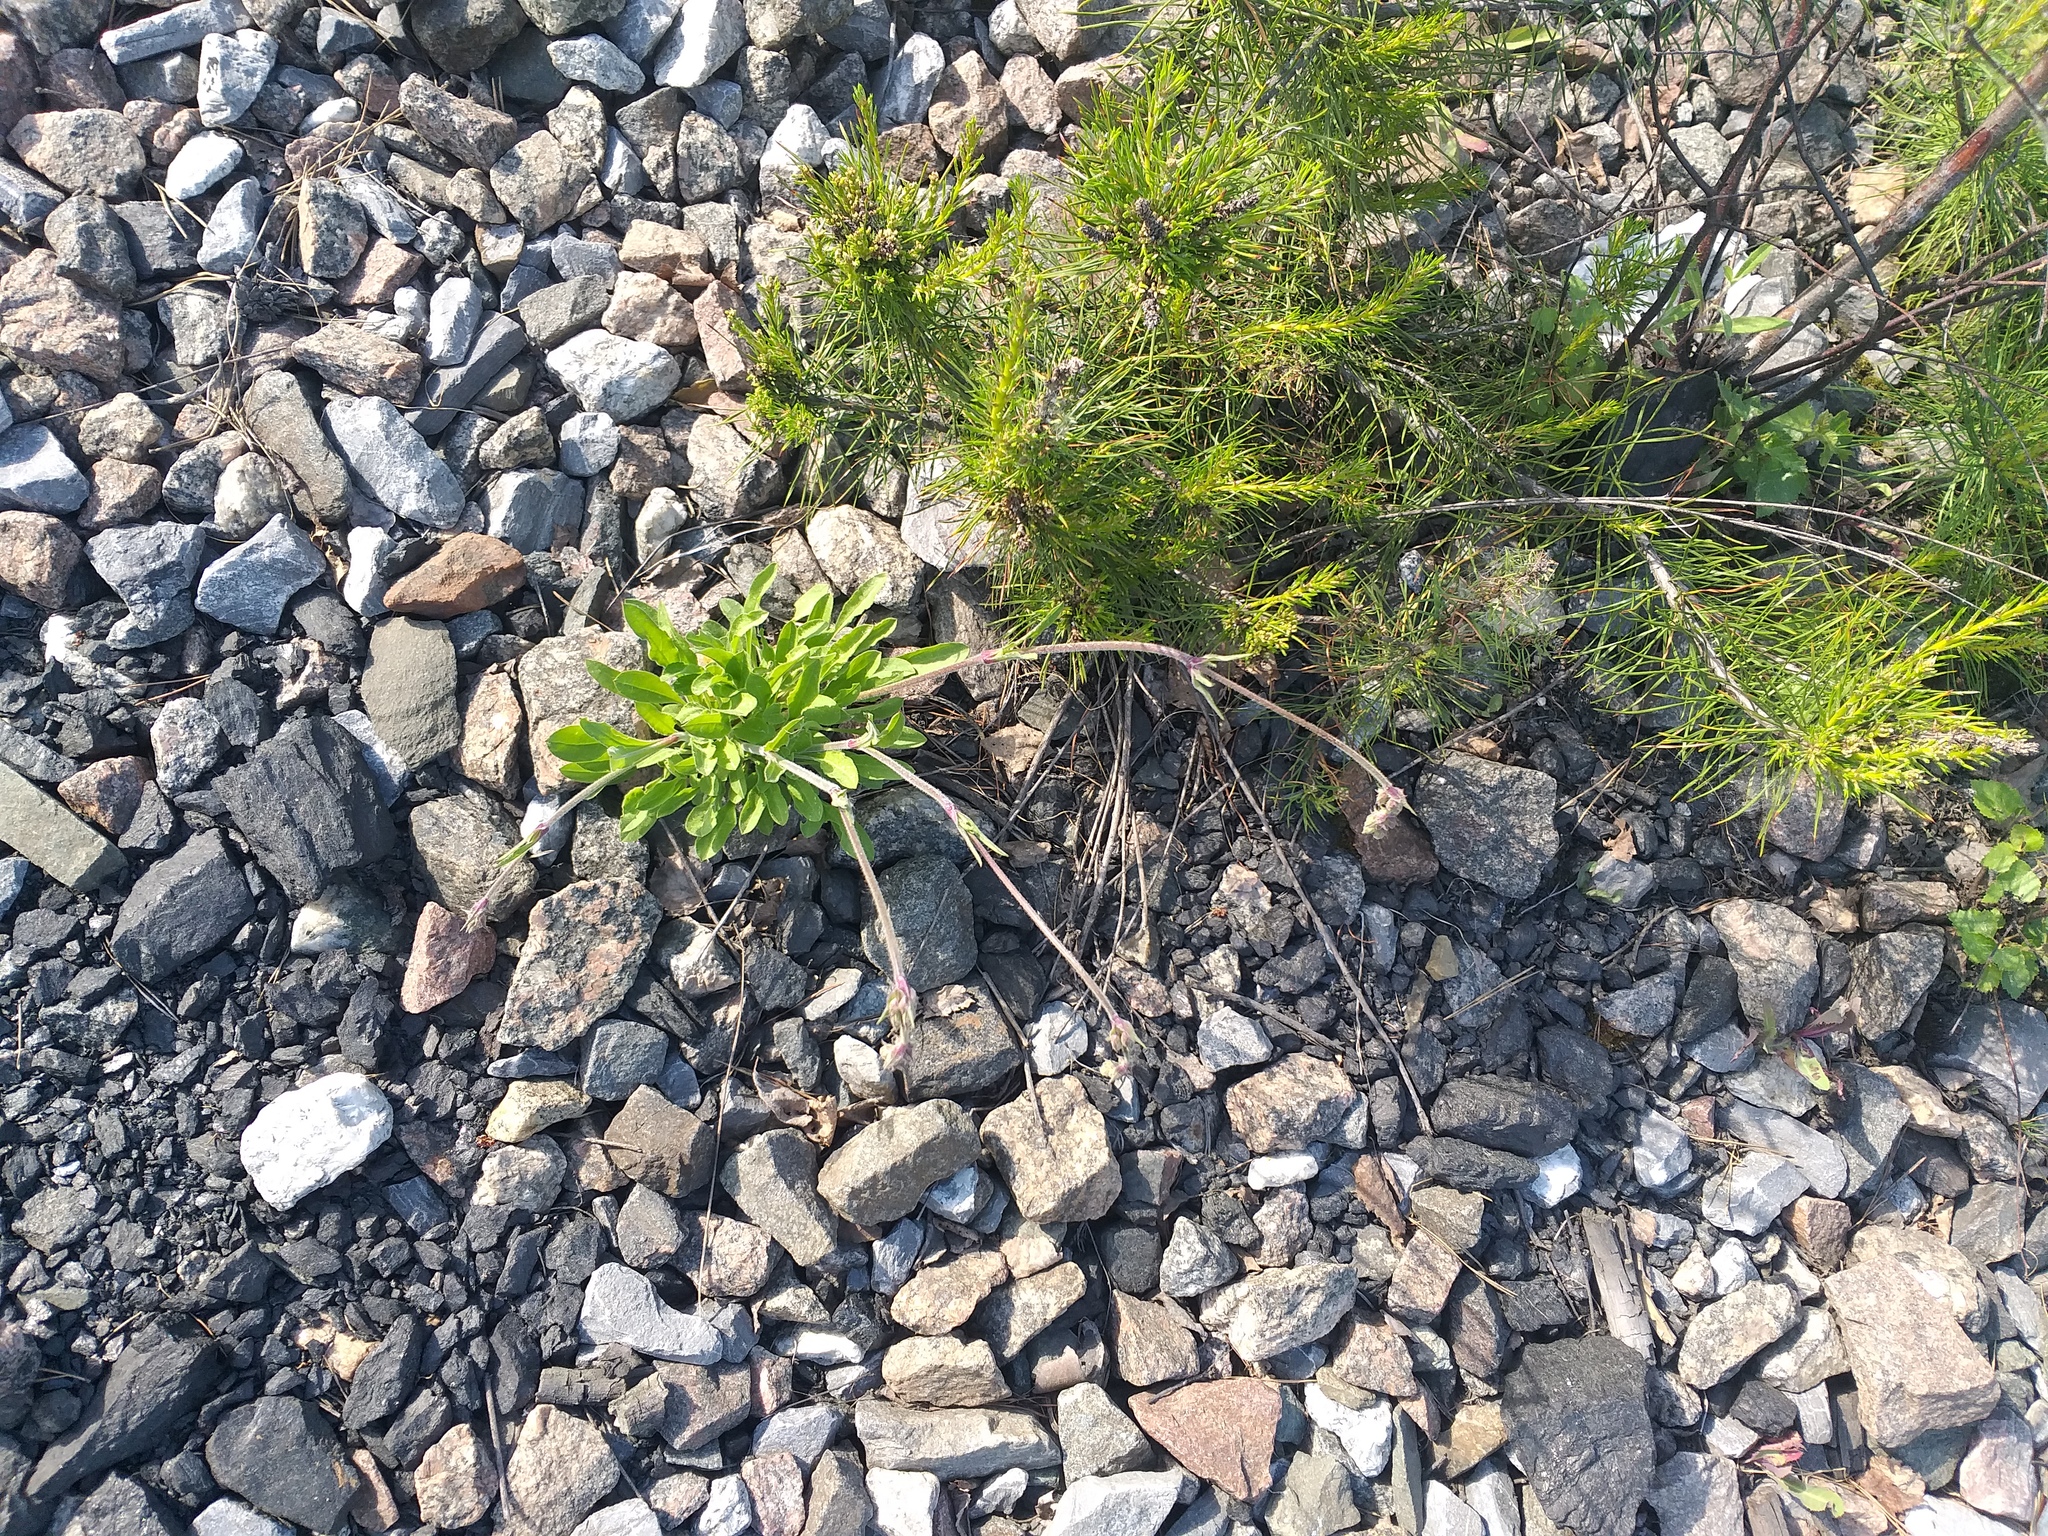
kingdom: Plantae
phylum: Tracheophyta
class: Magnoliopsida
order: Caryophyllales
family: Caryophyllaceae
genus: Silene
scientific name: Silene nutans
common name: Nottingham catchfly
